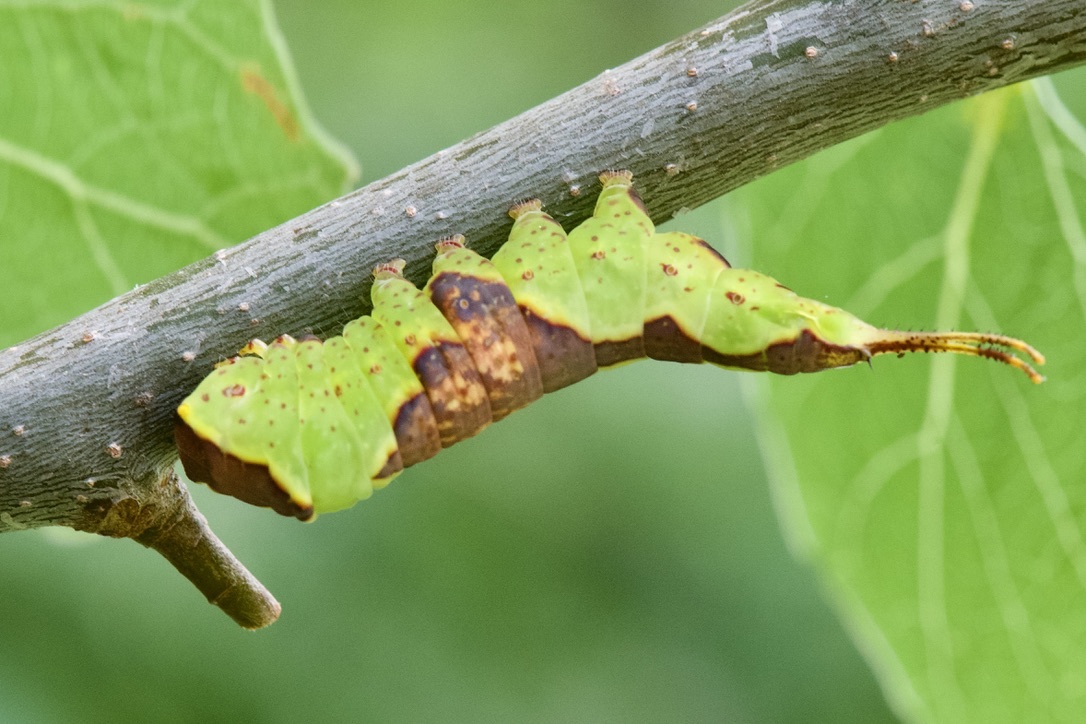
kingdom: Animalia
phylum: Arthropoda
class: Insecta
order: Lepidoptera
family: Notodontidae
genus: Furcula
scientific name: Furcula cinerea
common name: Gray furcula
